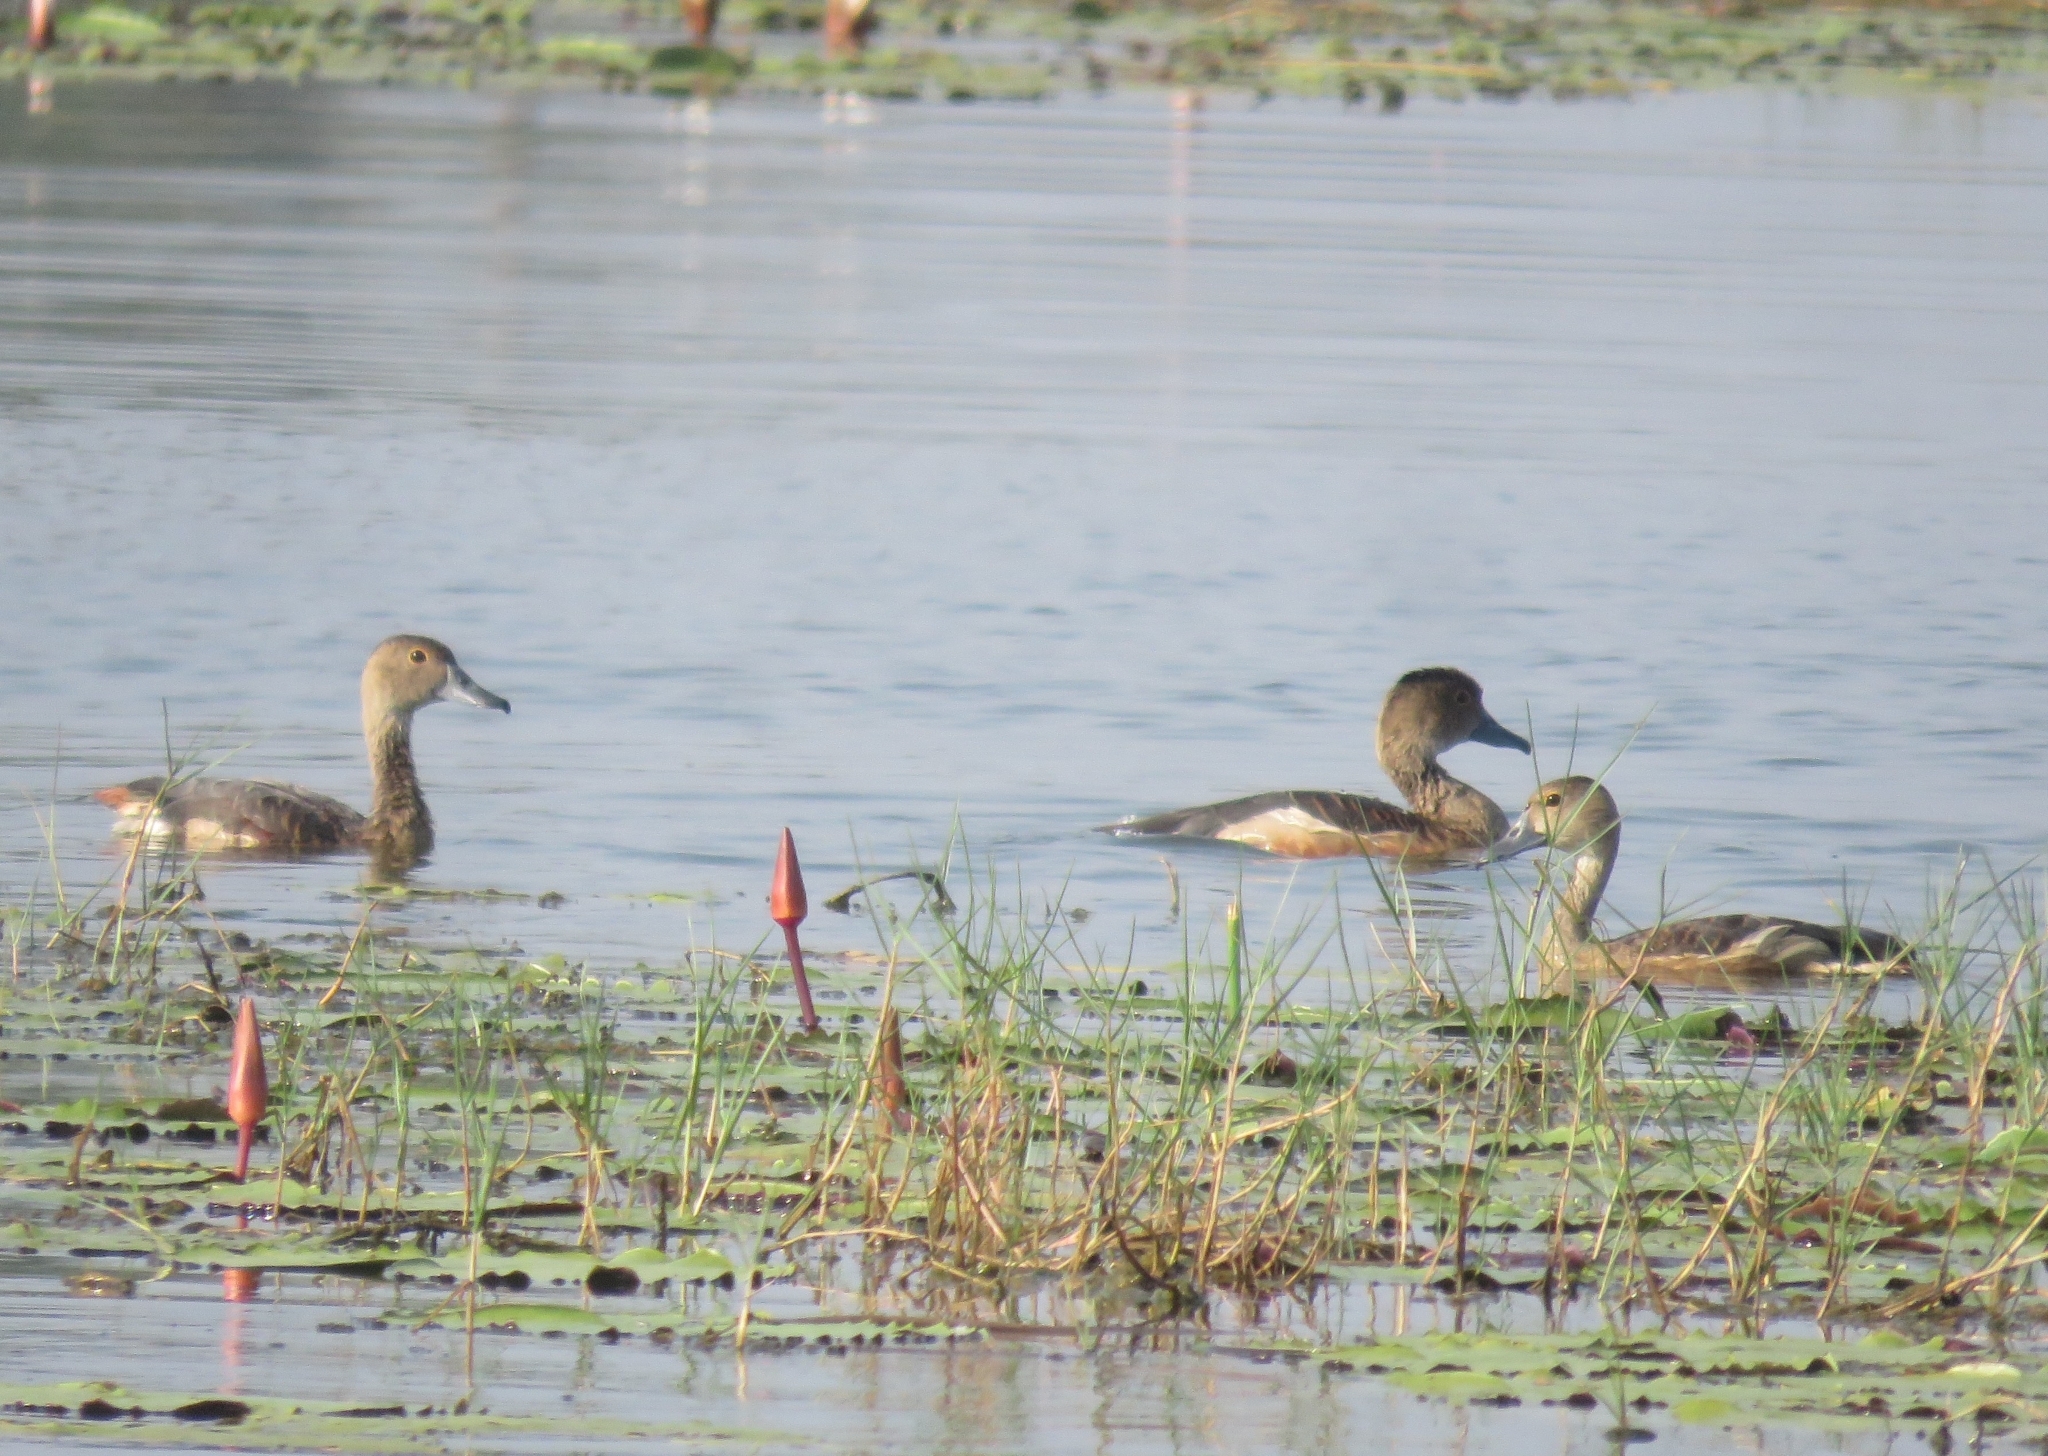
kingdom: Animalia
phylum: Chordata
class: Aves
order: Anseriformes
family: Anatidae
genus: Dendrocygna
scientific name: Dendrocygna javanica
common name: Lesser whistling-duck
